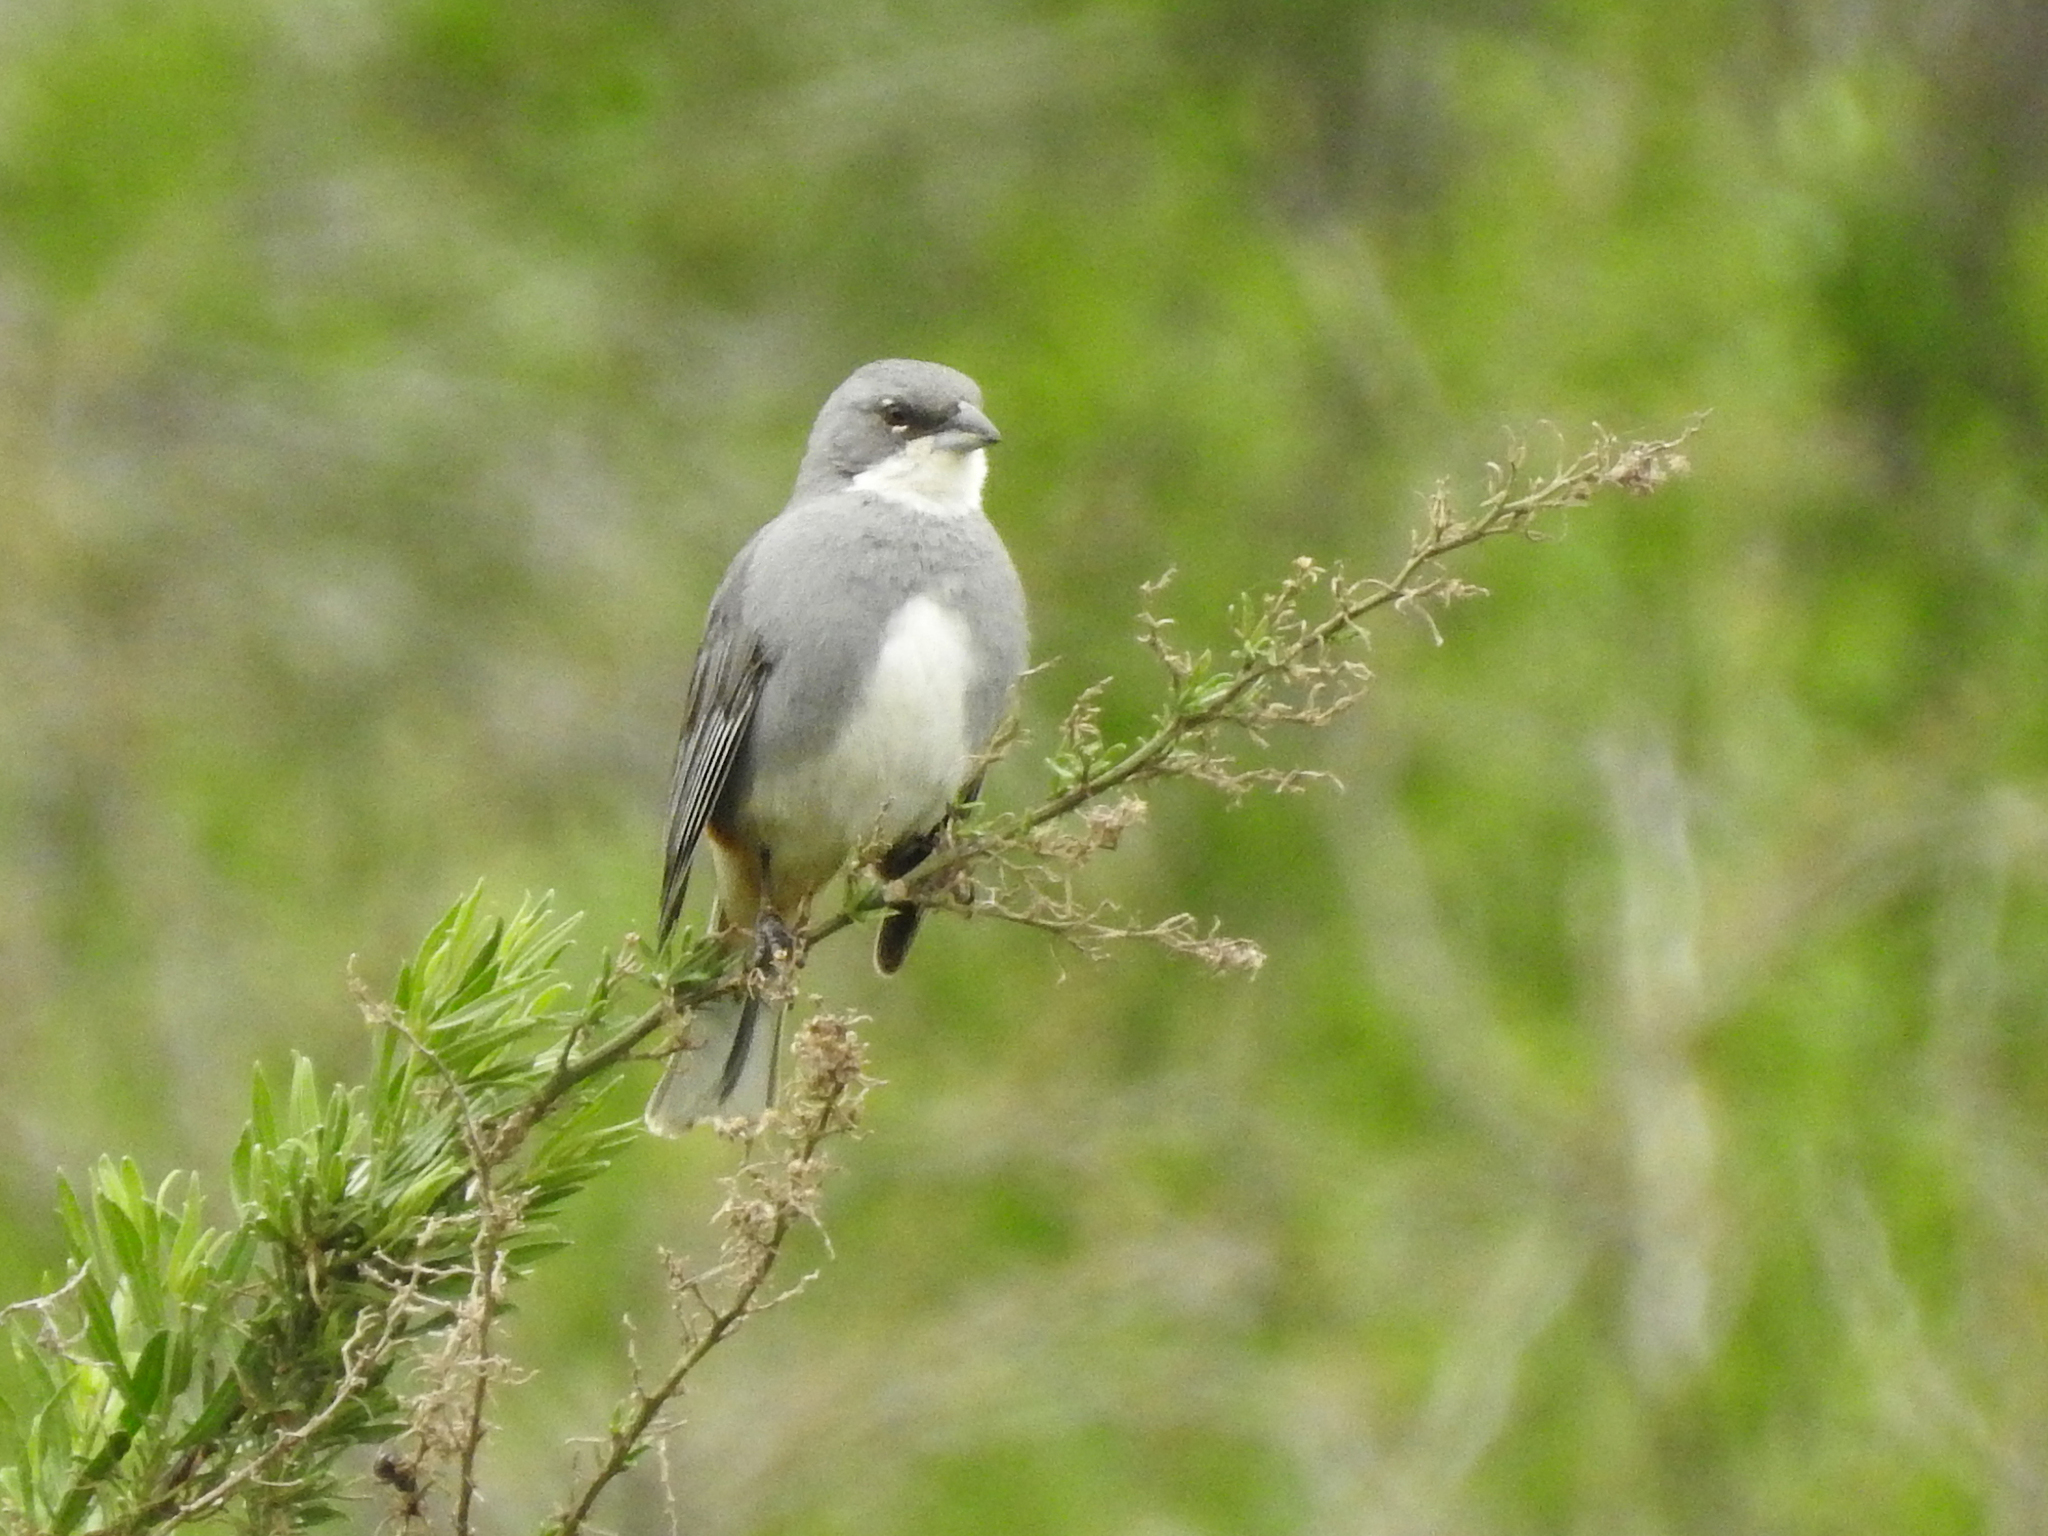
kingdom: Animalia
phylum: Chordata
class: Aves
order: Passeriformes
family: Thraupidae
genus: Diuca
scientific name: Diuca diuca
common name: Common diuca finch
